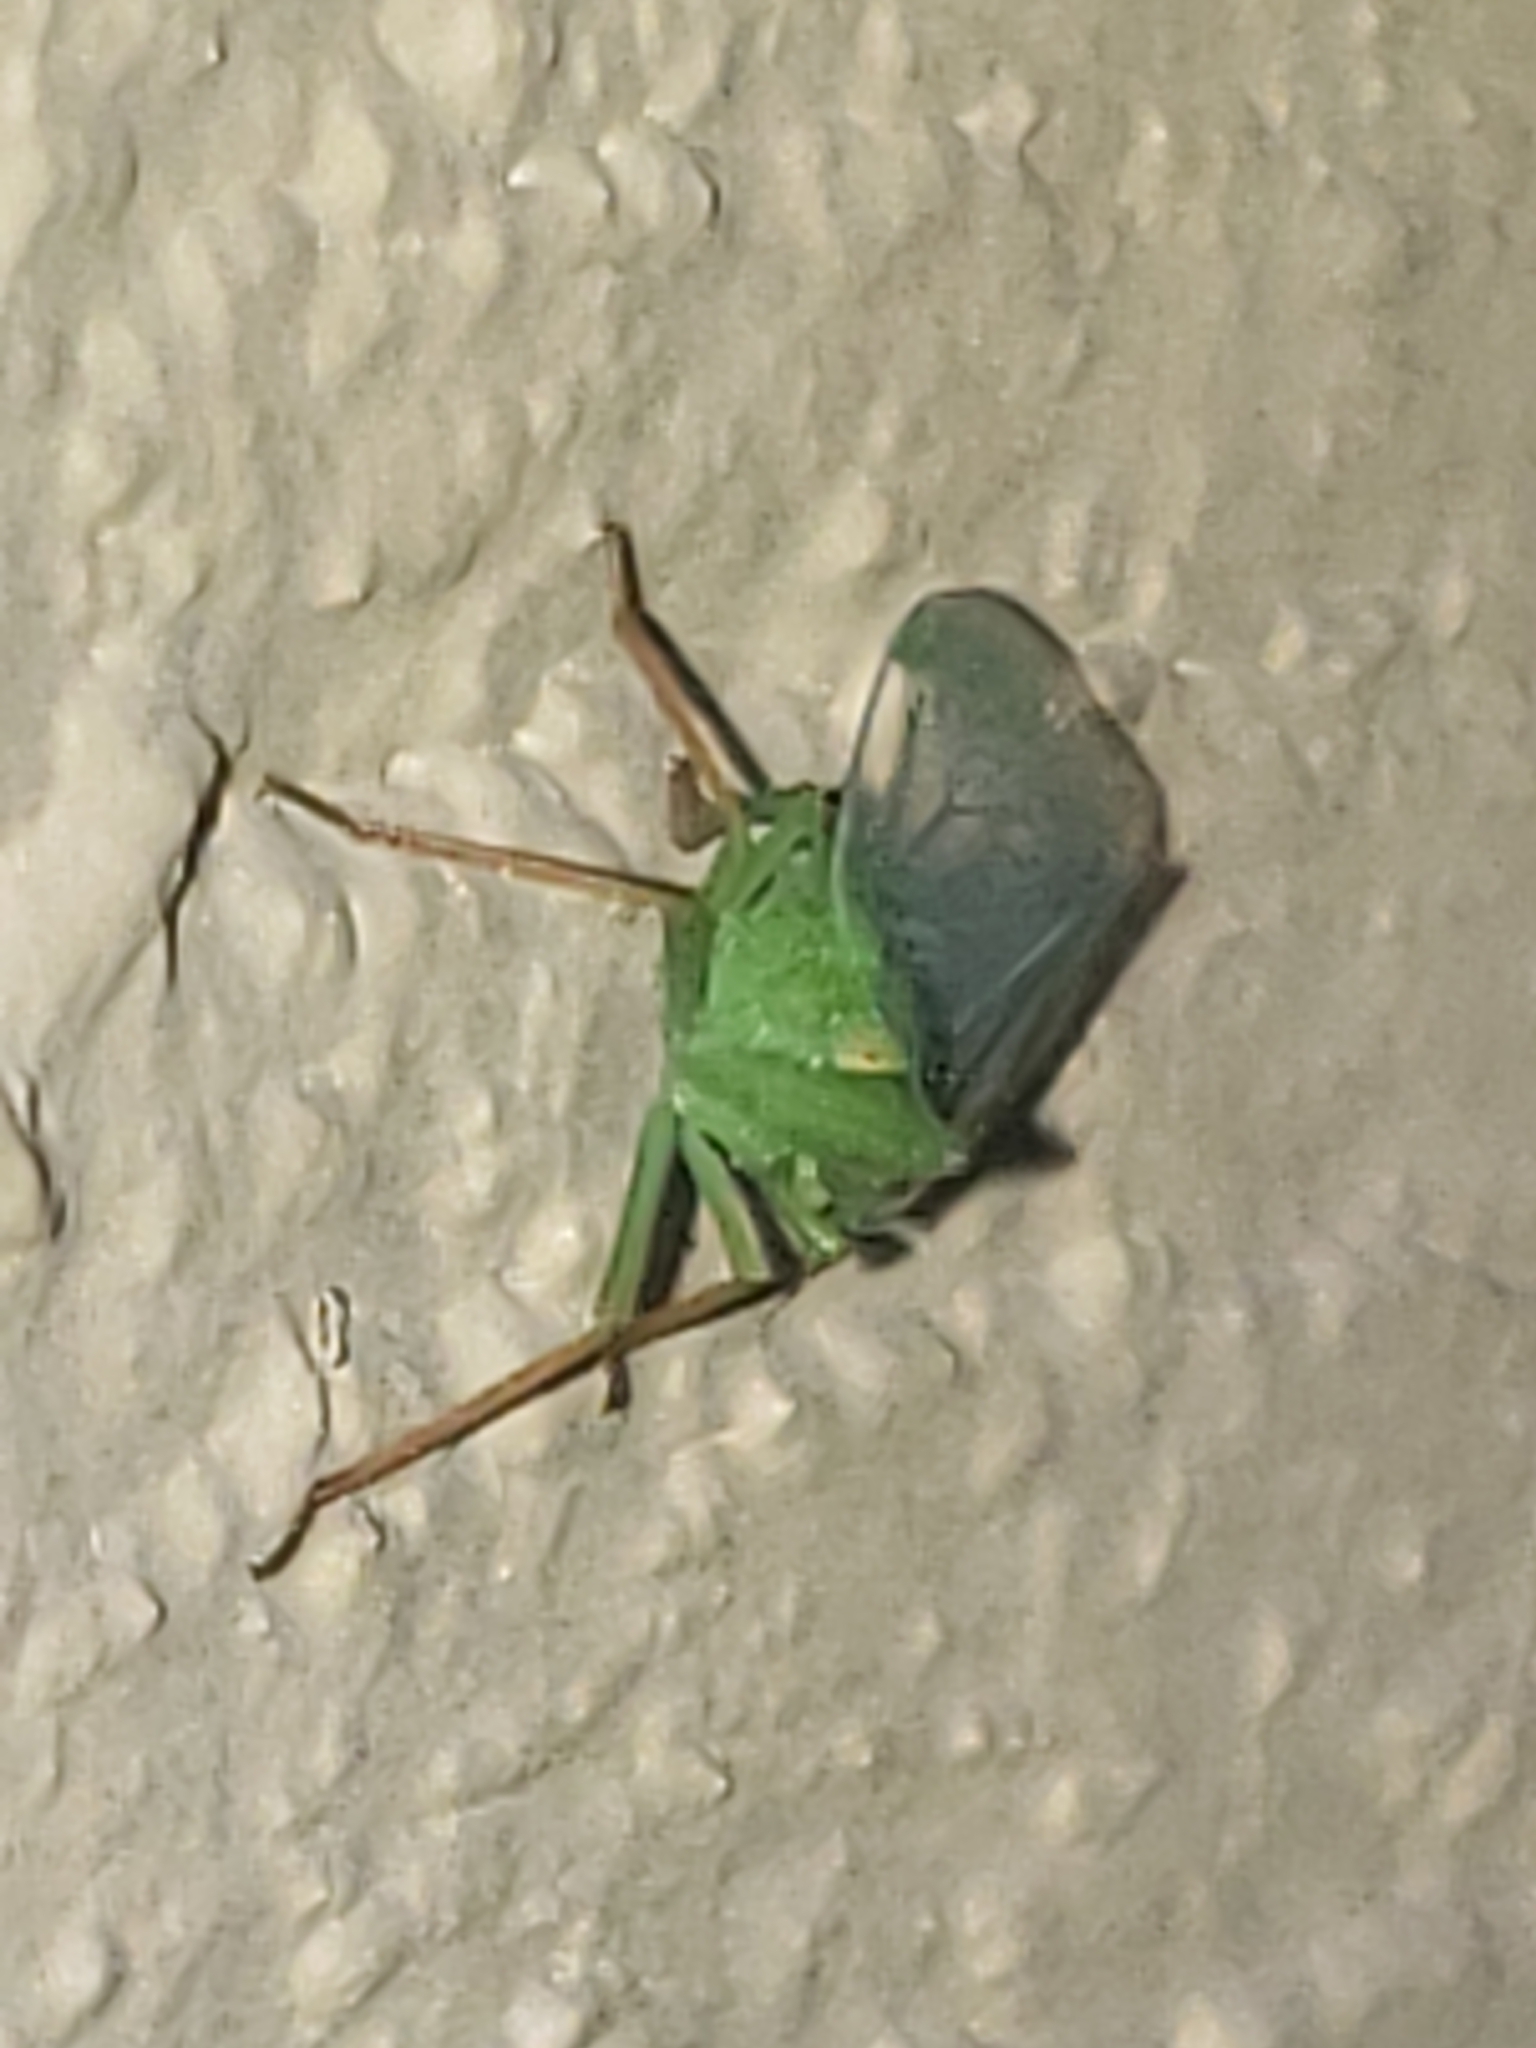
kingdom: Animalia
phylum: Arthropoda
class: Insecta
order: Hemiptera
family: Dictyopharidae
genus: Rhynchomitra
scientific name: Rhynchomitra microrhina
